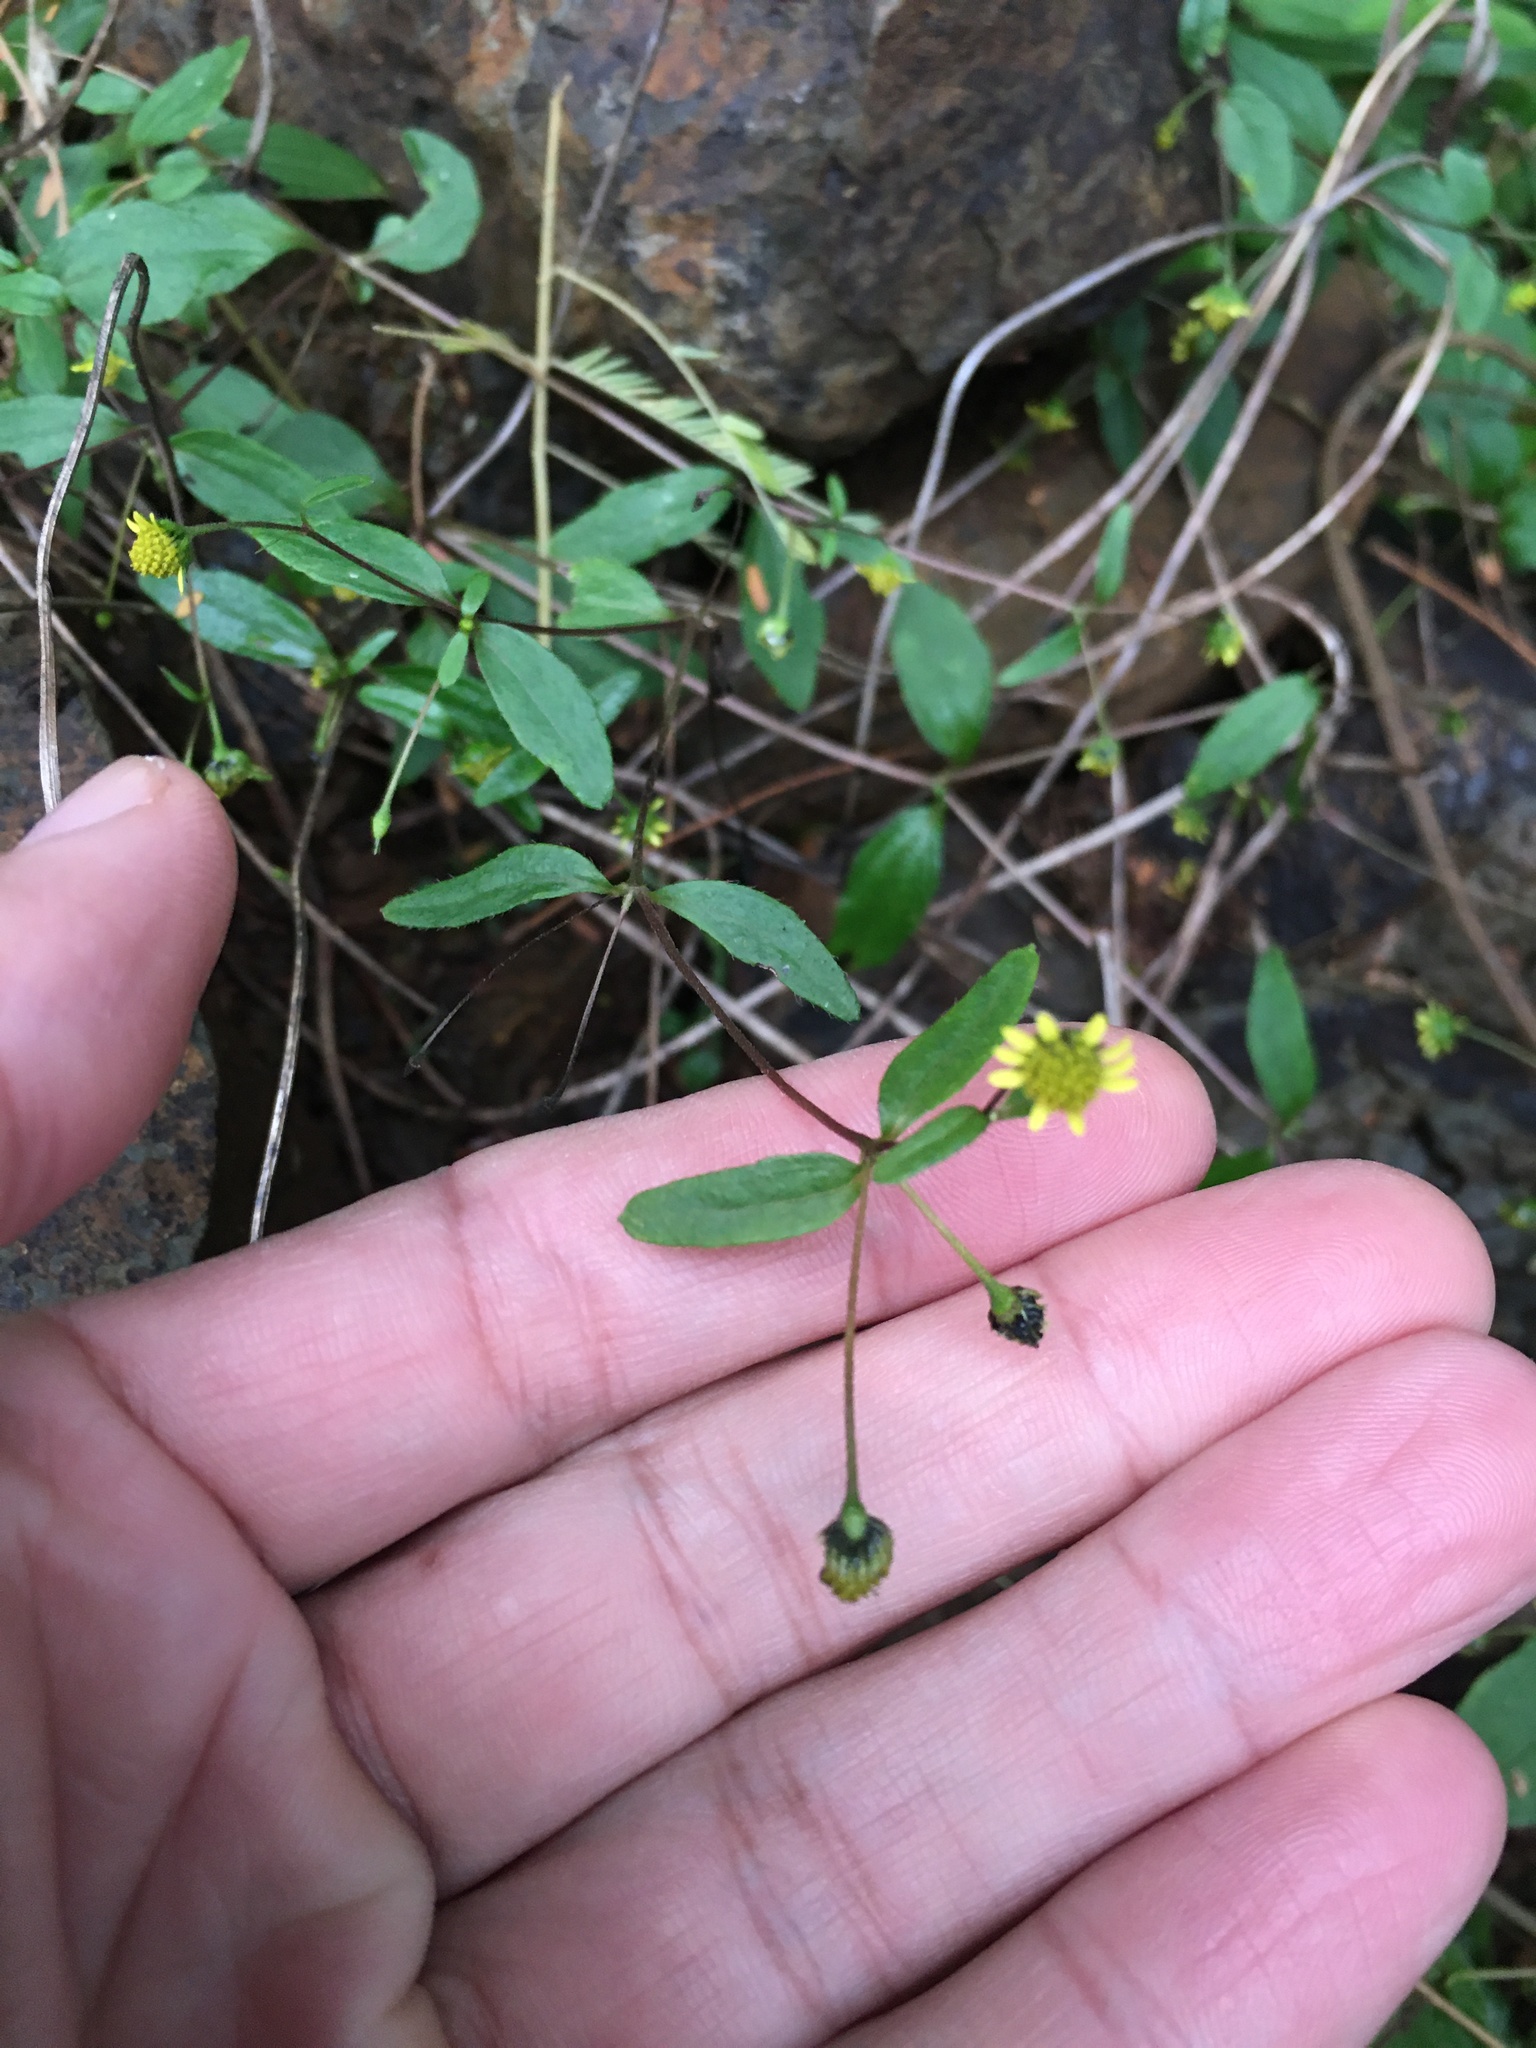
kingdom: Plantae
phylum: Tracheophyta
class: Magnoliopsida
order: Asterales
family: Asteraceae
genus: Jaegeria
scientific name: Jaegeria hirta
